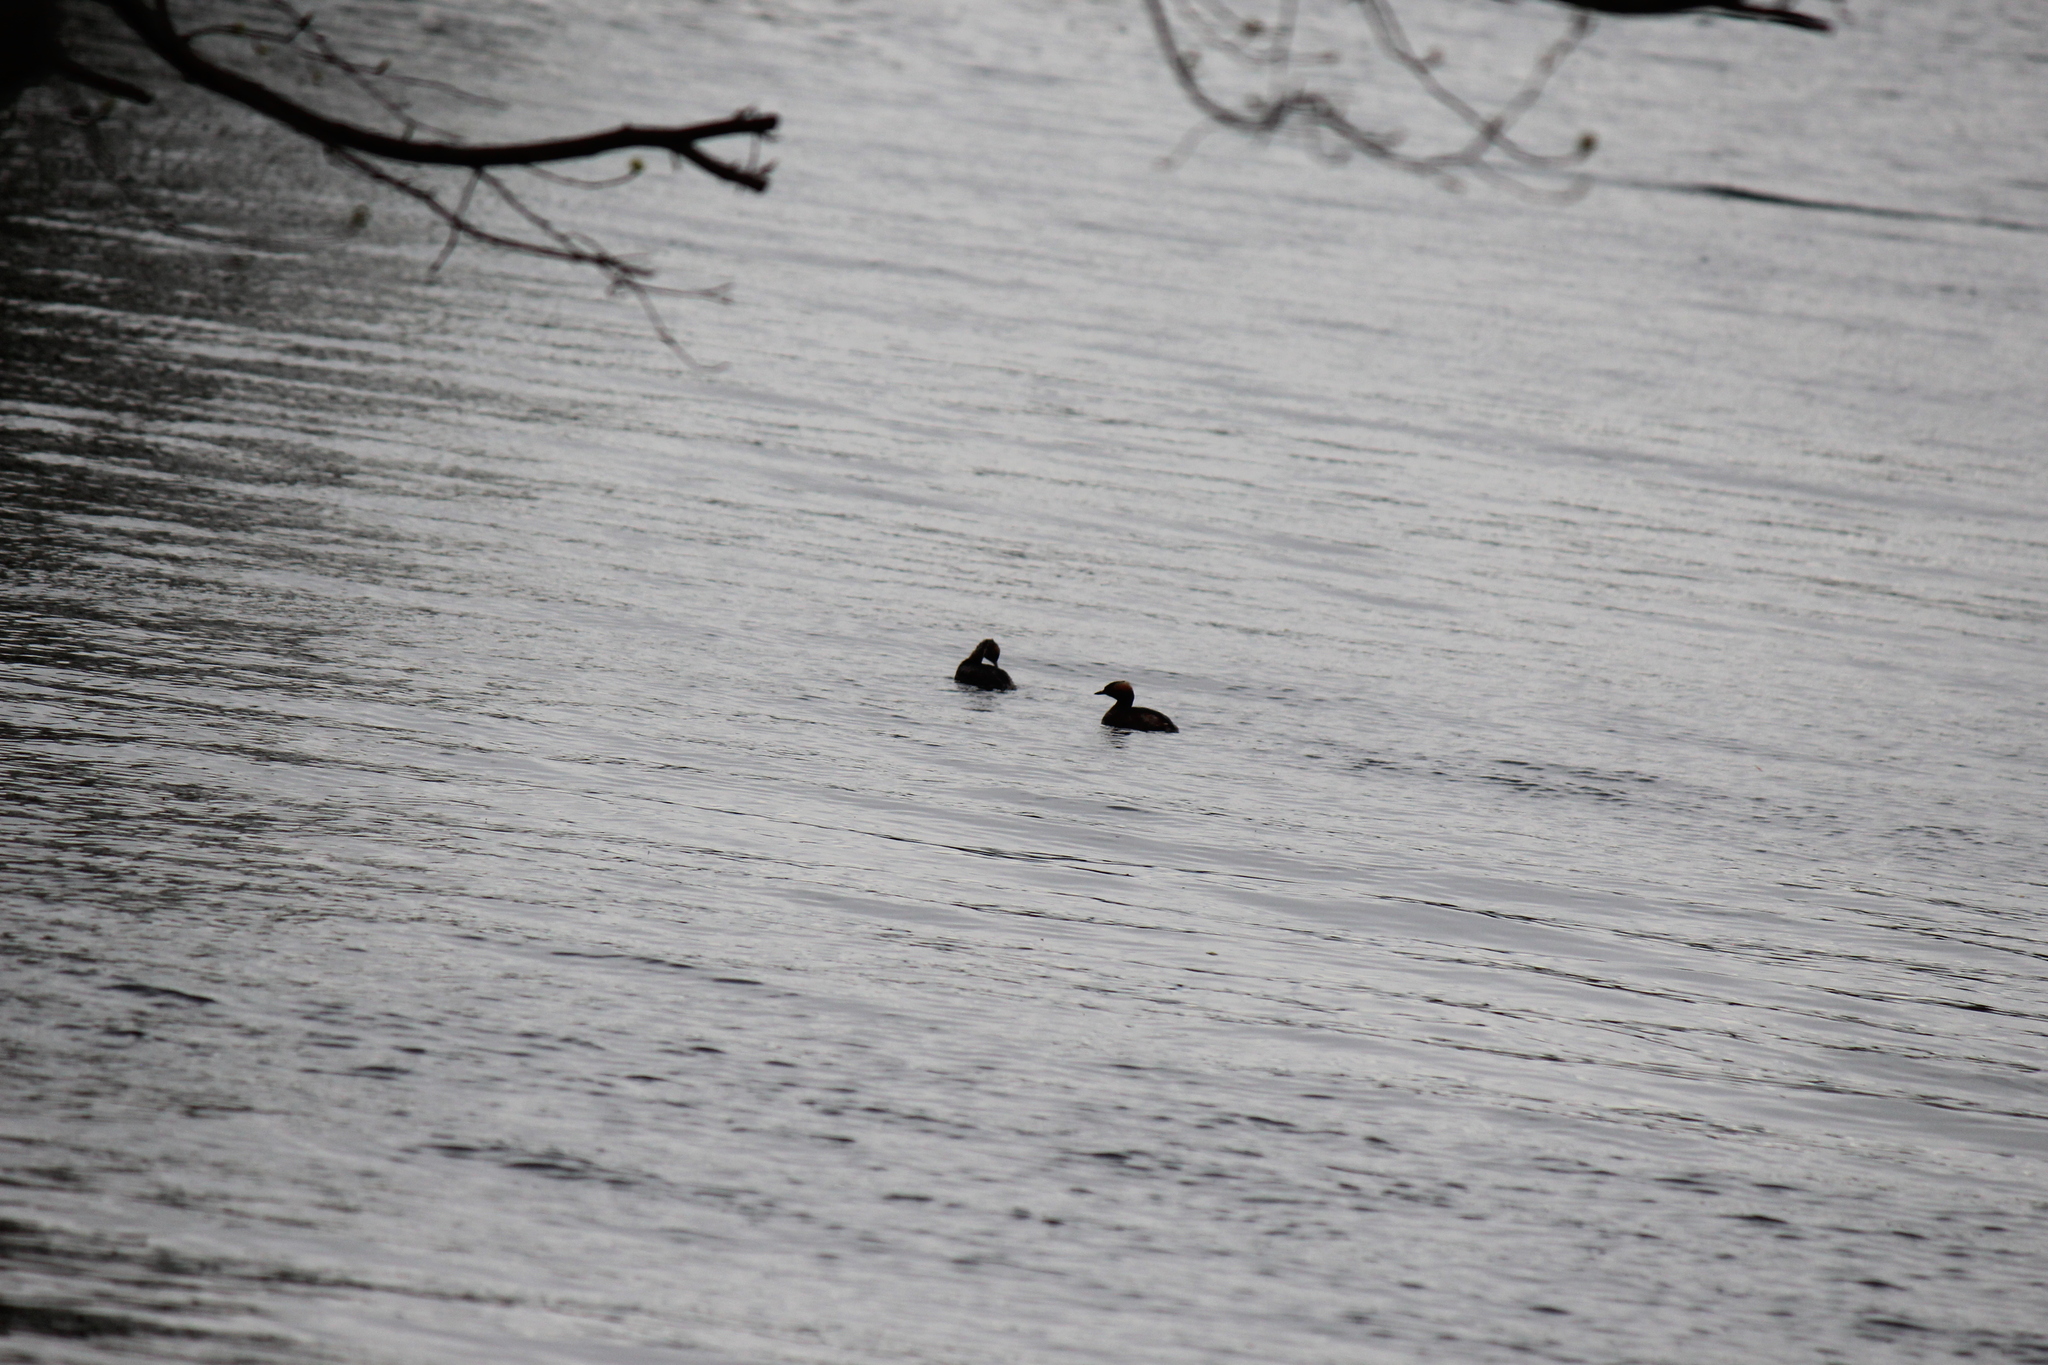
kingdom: Animalia
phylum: Chordata
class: Aves
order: Podicipediformes
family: Podicipedidae
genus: Podiceps
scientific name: Podiceps auritus
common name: Horned grebe
